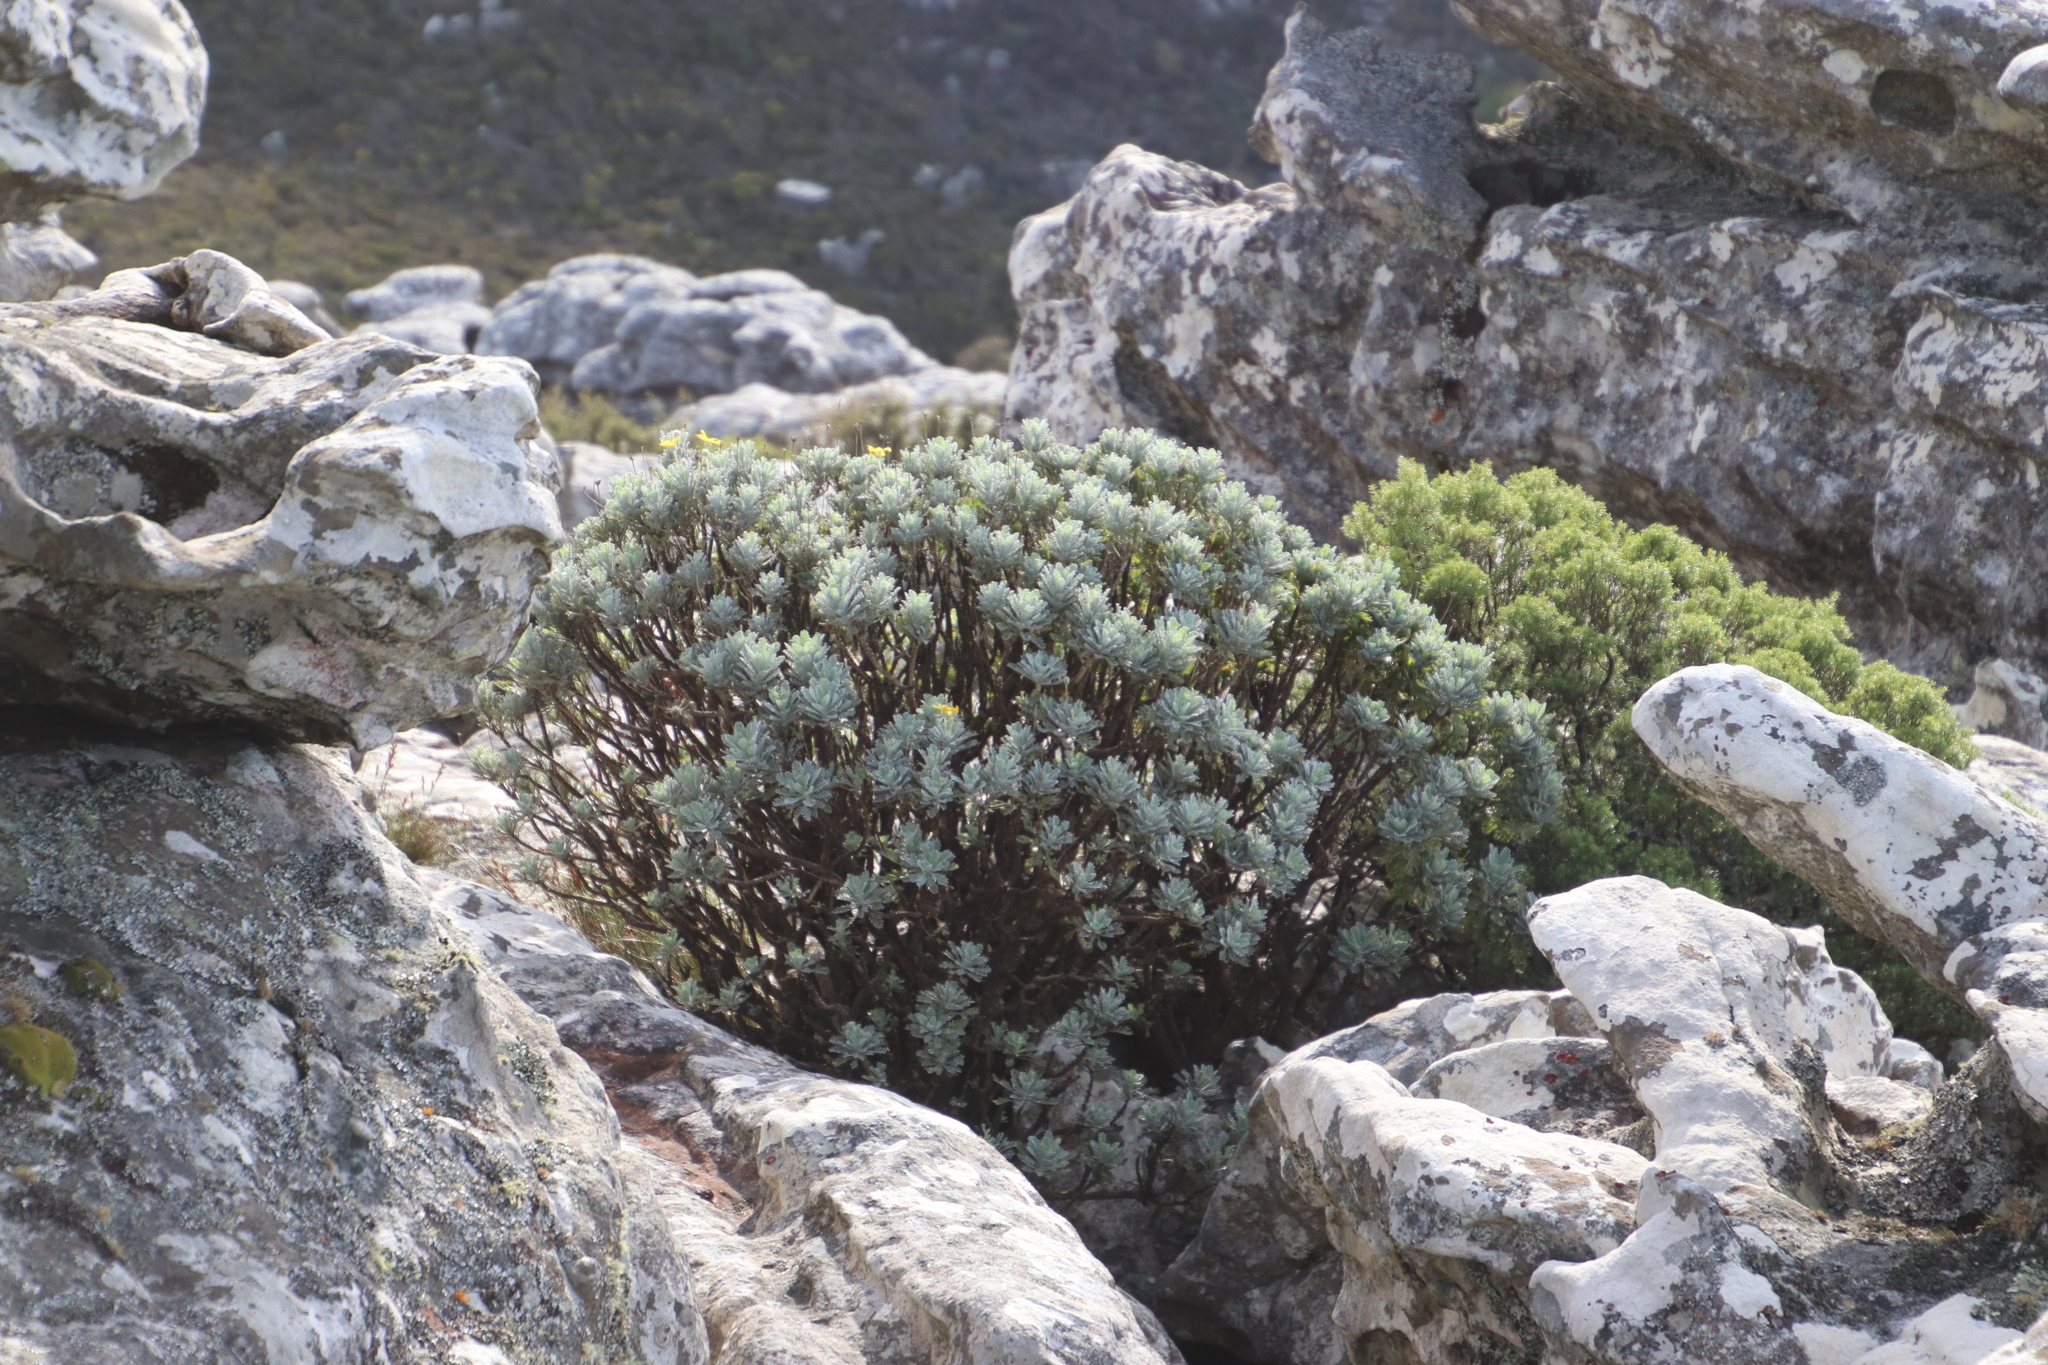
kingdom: Plantae
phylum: Tracheophyta
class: Magnoliopsida
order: Asterales
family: Asteraceae
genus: Euryops
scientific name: Euryops pectinatus
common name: Gray-leaf euryops
